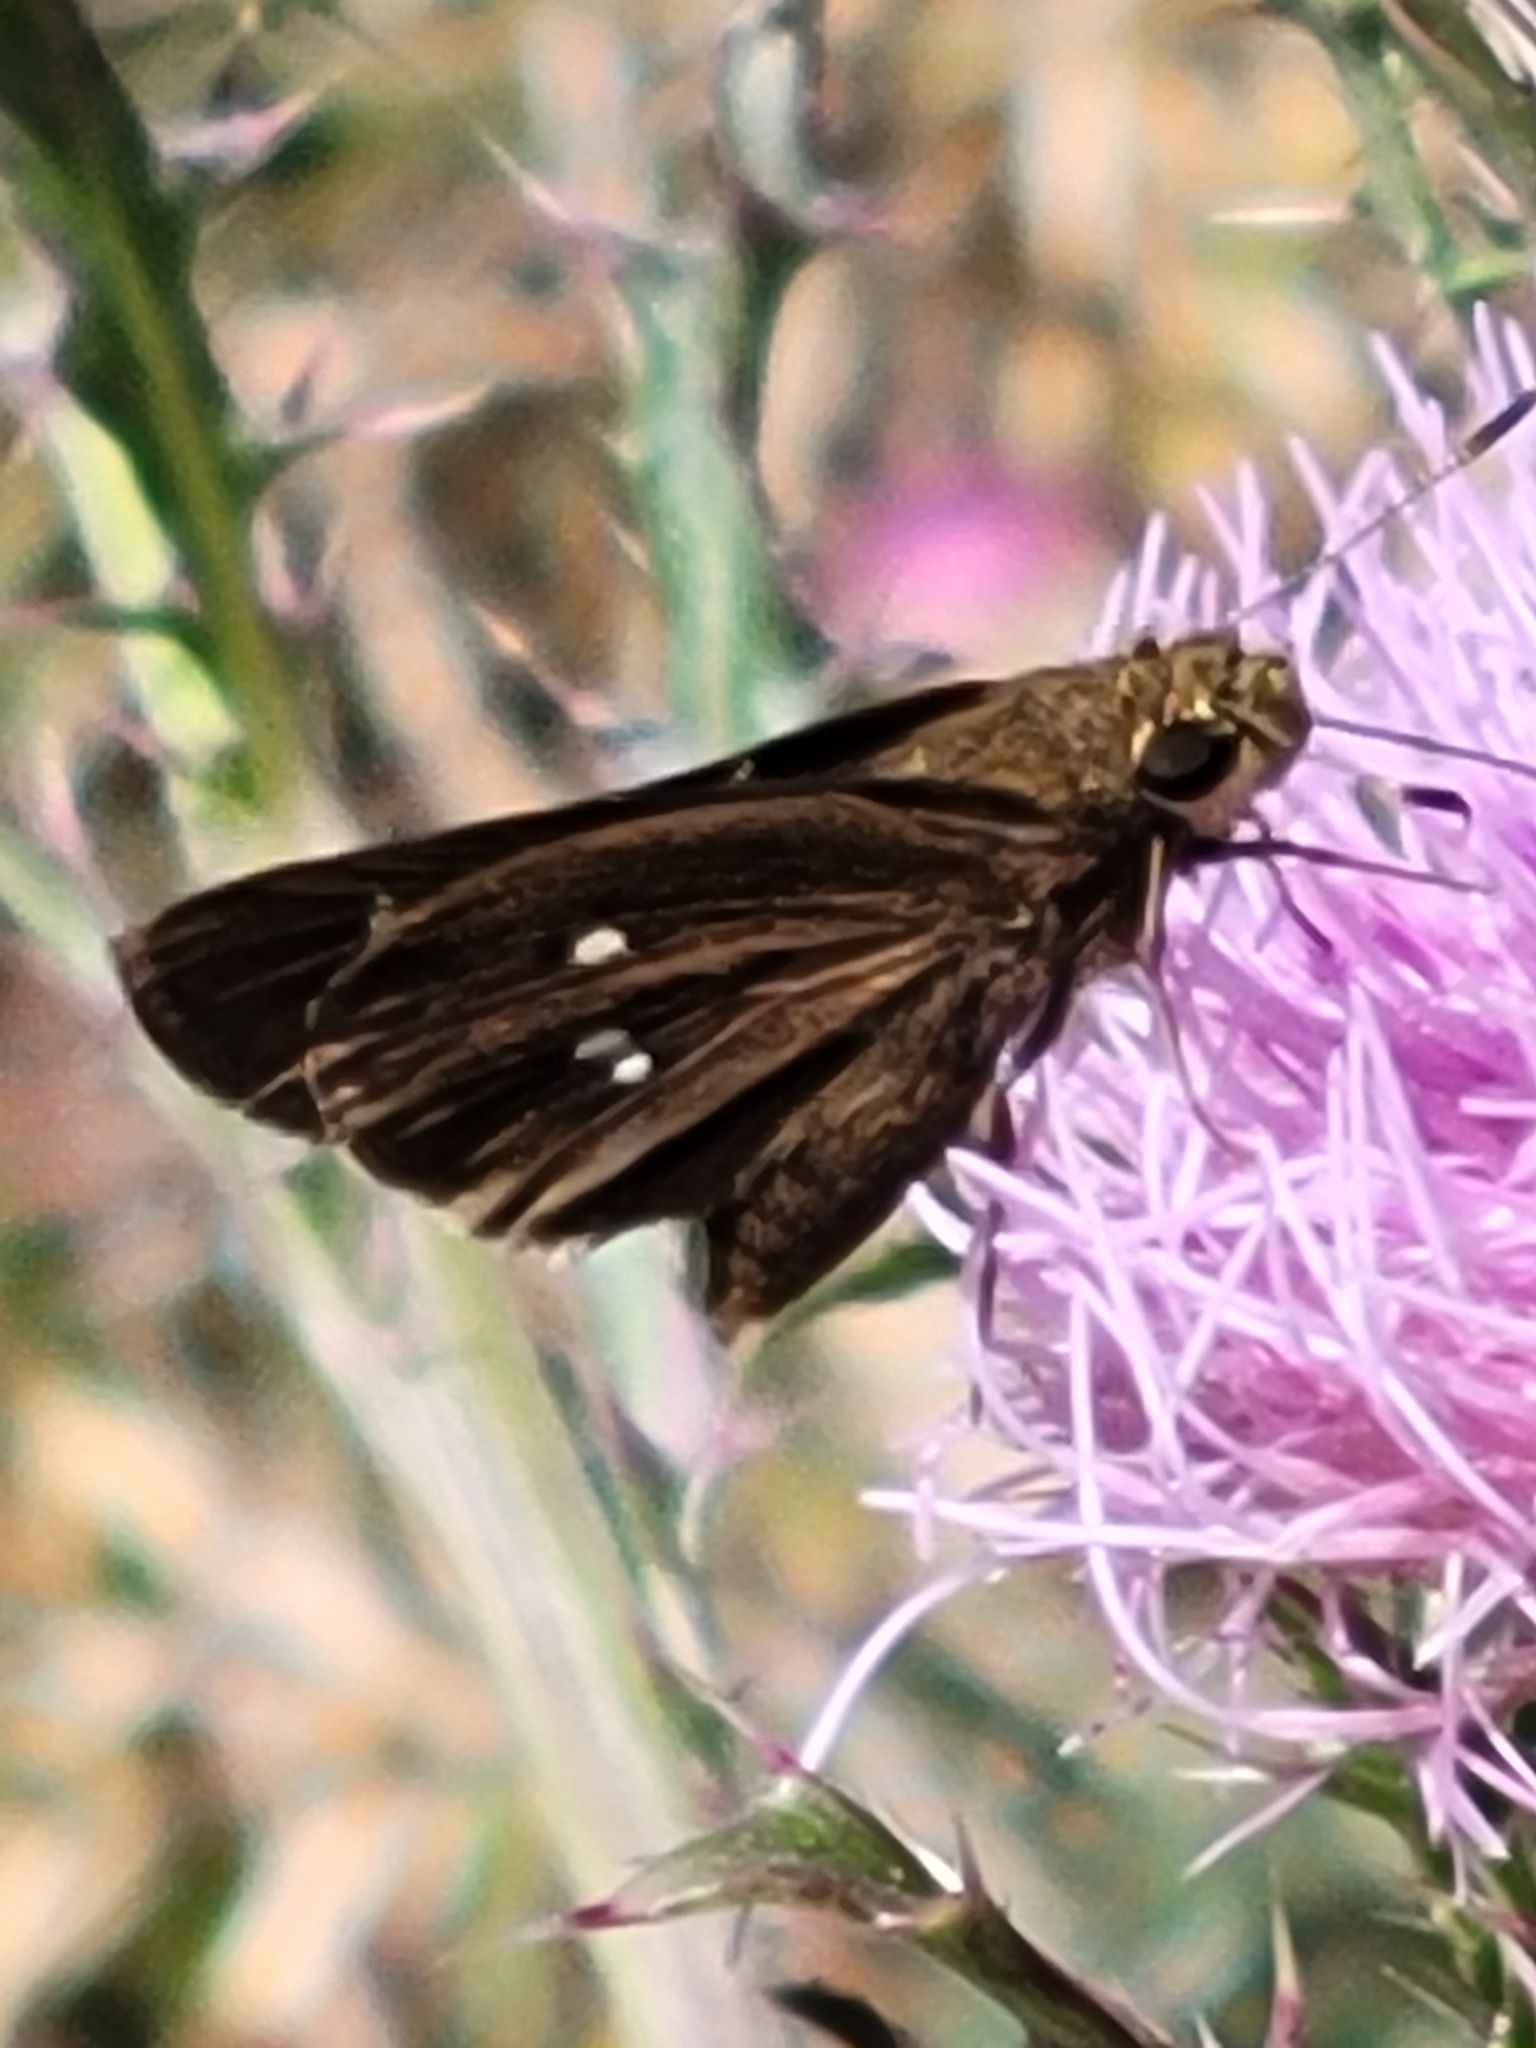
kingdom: Animalia
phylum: Arthropoda
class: Insecta
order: Lepidoptera
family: Hesperiidae
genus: Oligoria
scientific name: Oligoria maculata
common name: Twin-spot skipper
